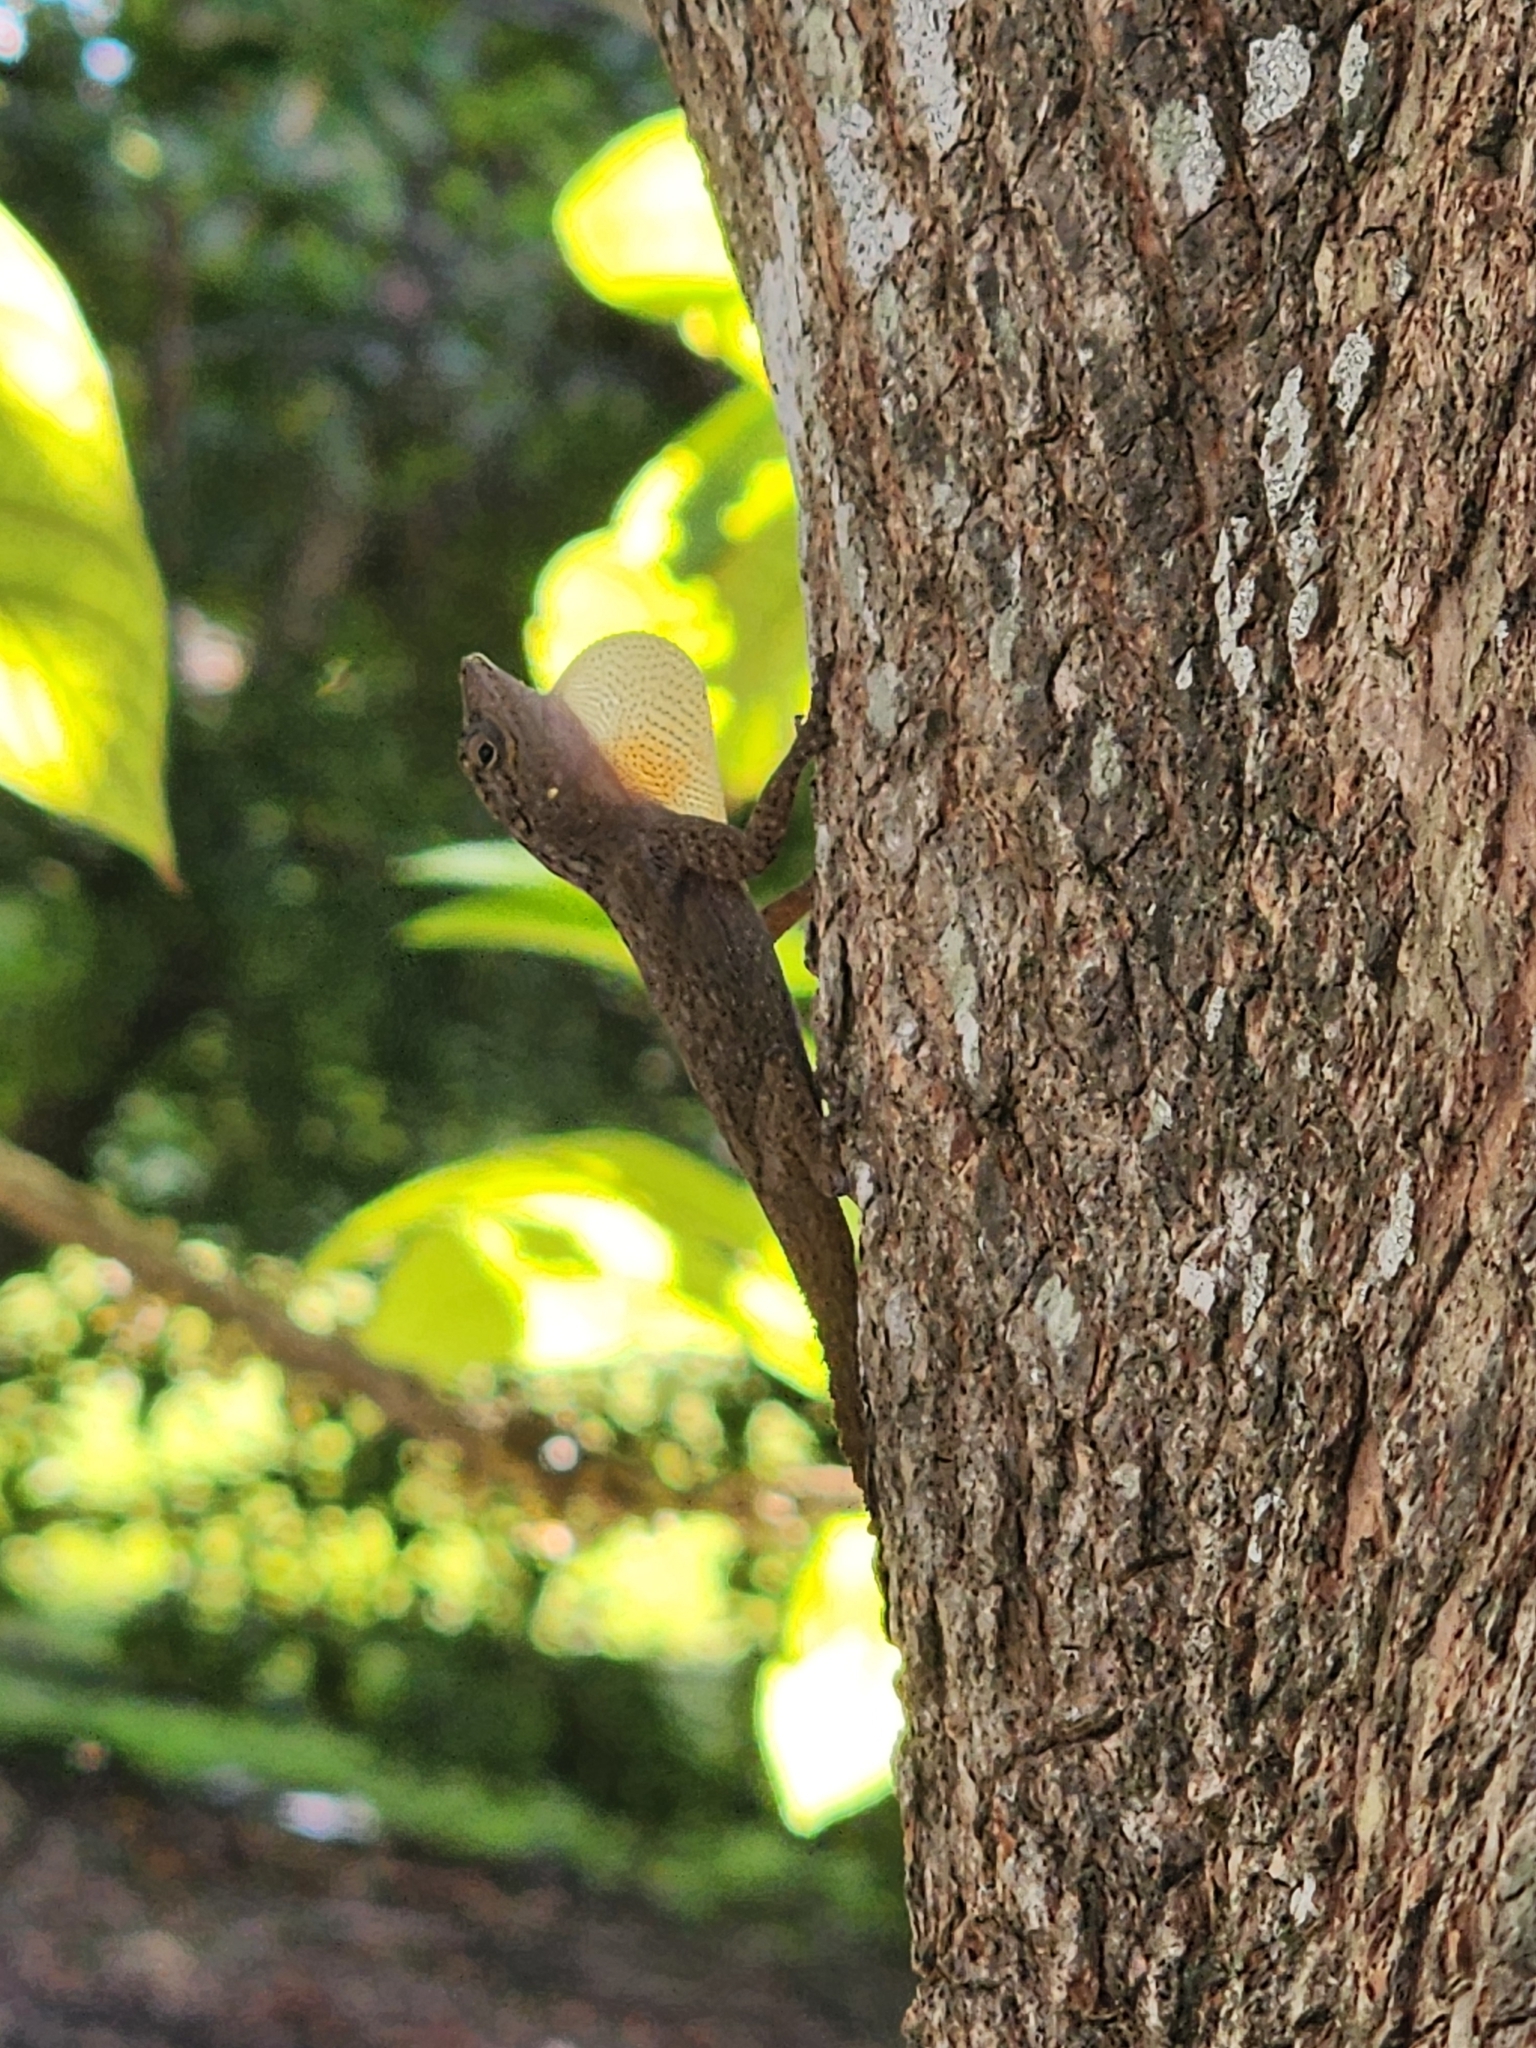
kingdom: Animalia
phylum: Chordata
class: Squamata
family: Dactyloidae
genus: Anolis
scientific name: Anolis distichus
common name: Bark anole
